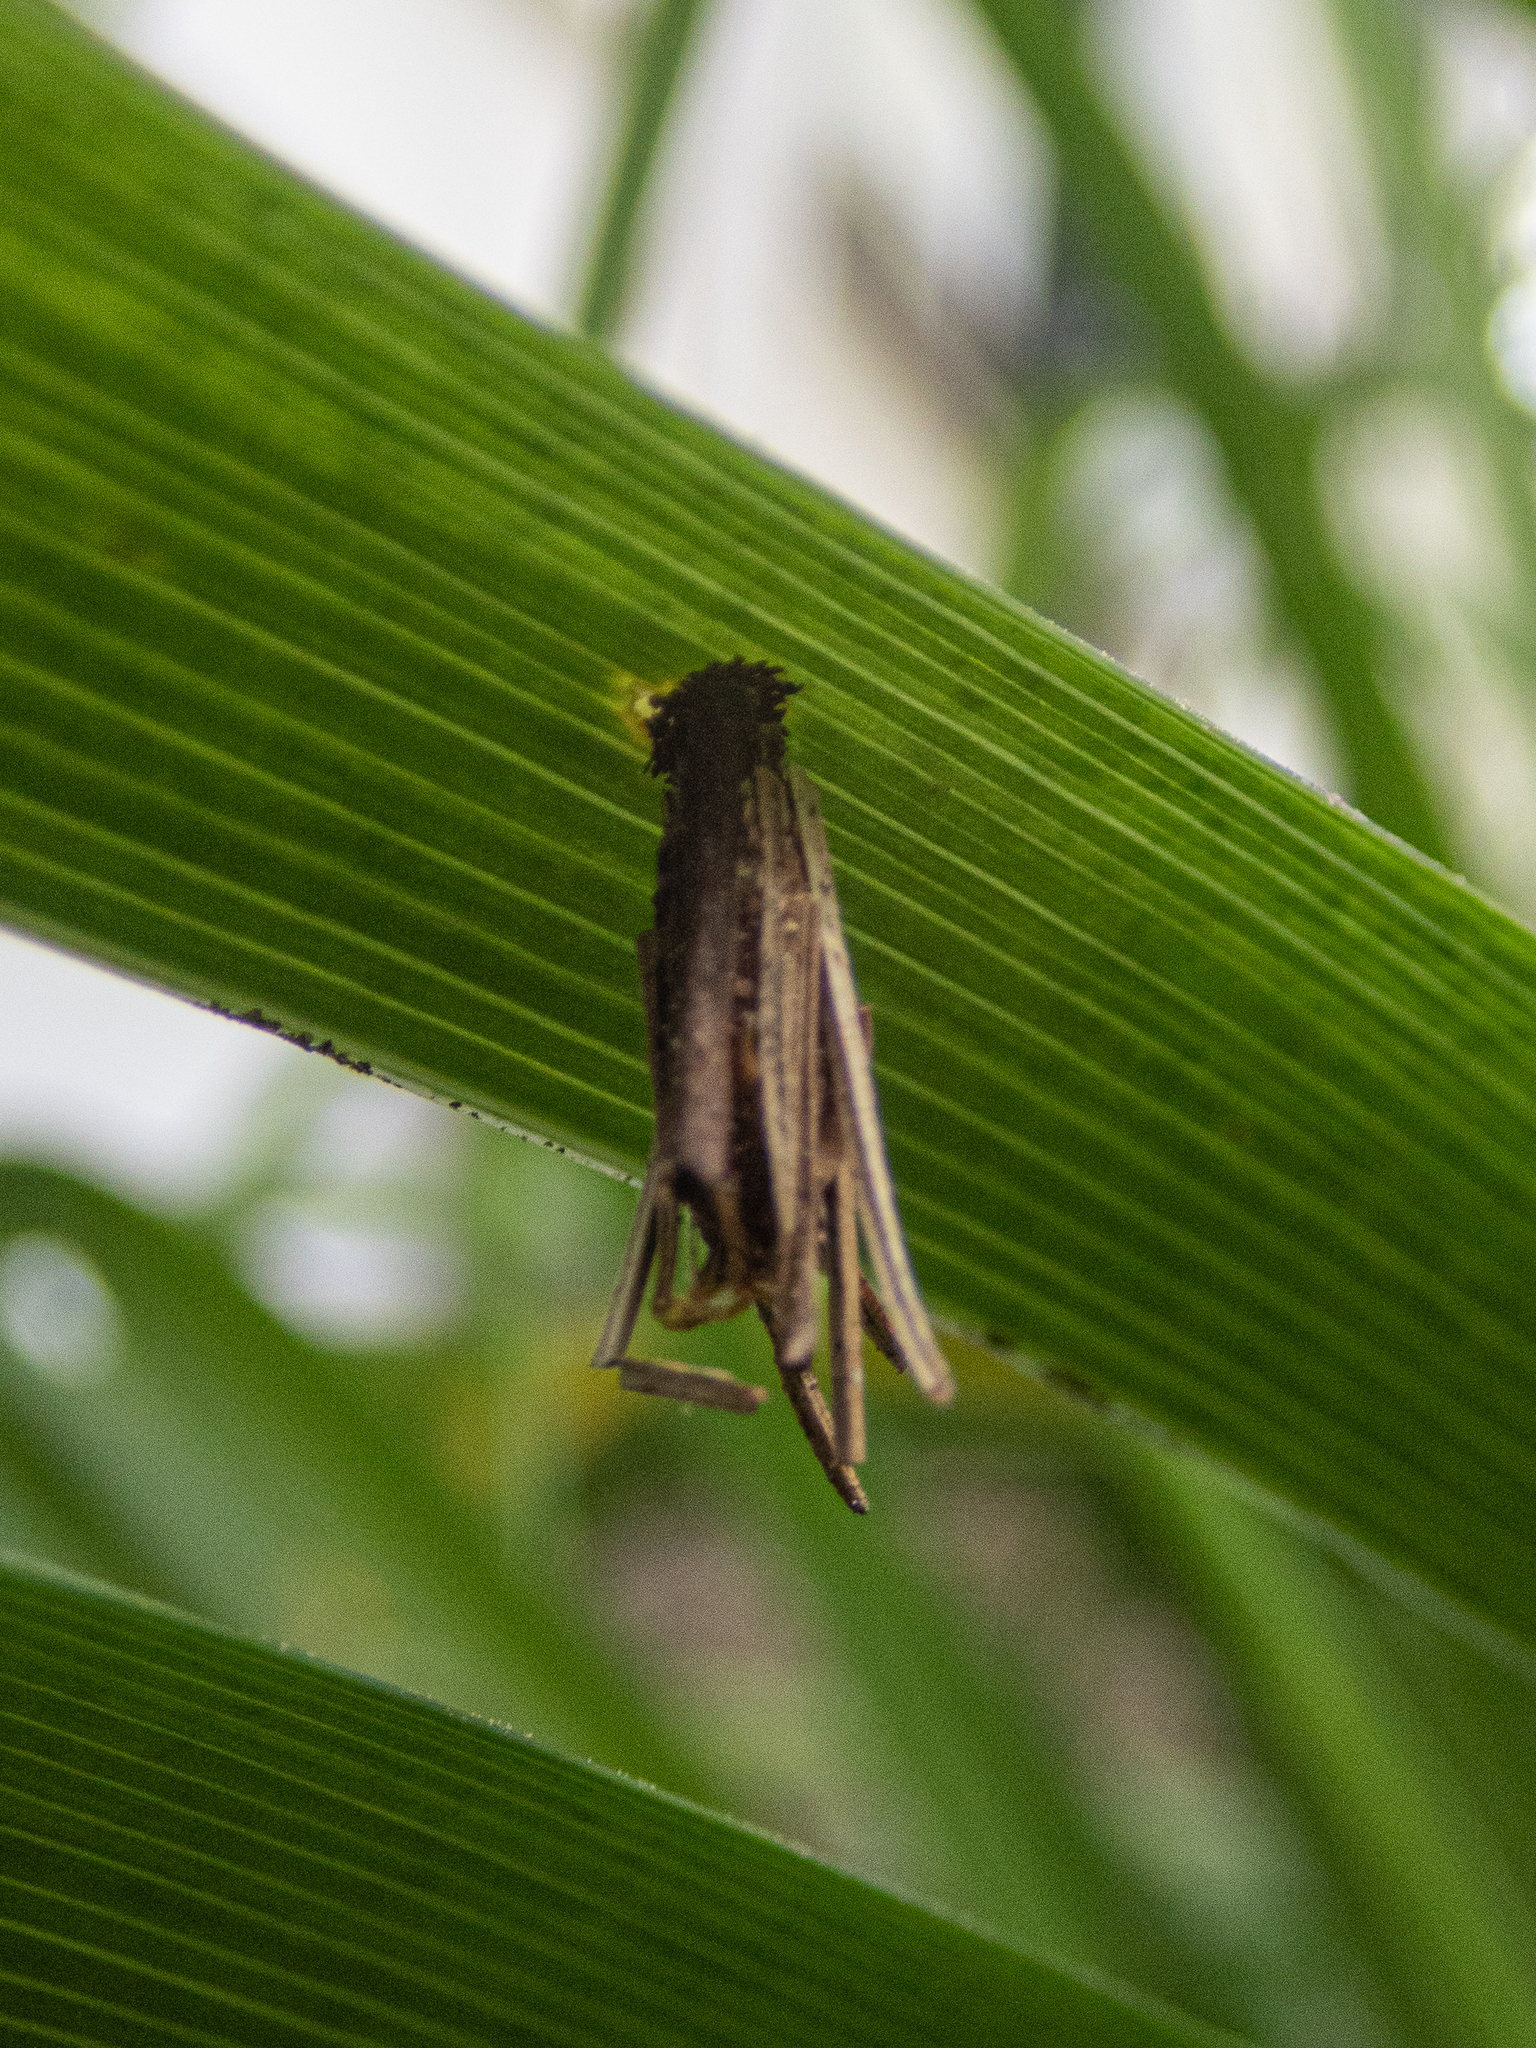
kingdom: Animalia
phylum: Arthropoda
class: Insecta
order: Lepidoptera
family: Psychidae
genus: Psyche
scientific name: Psyche casta
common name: Common sweep
